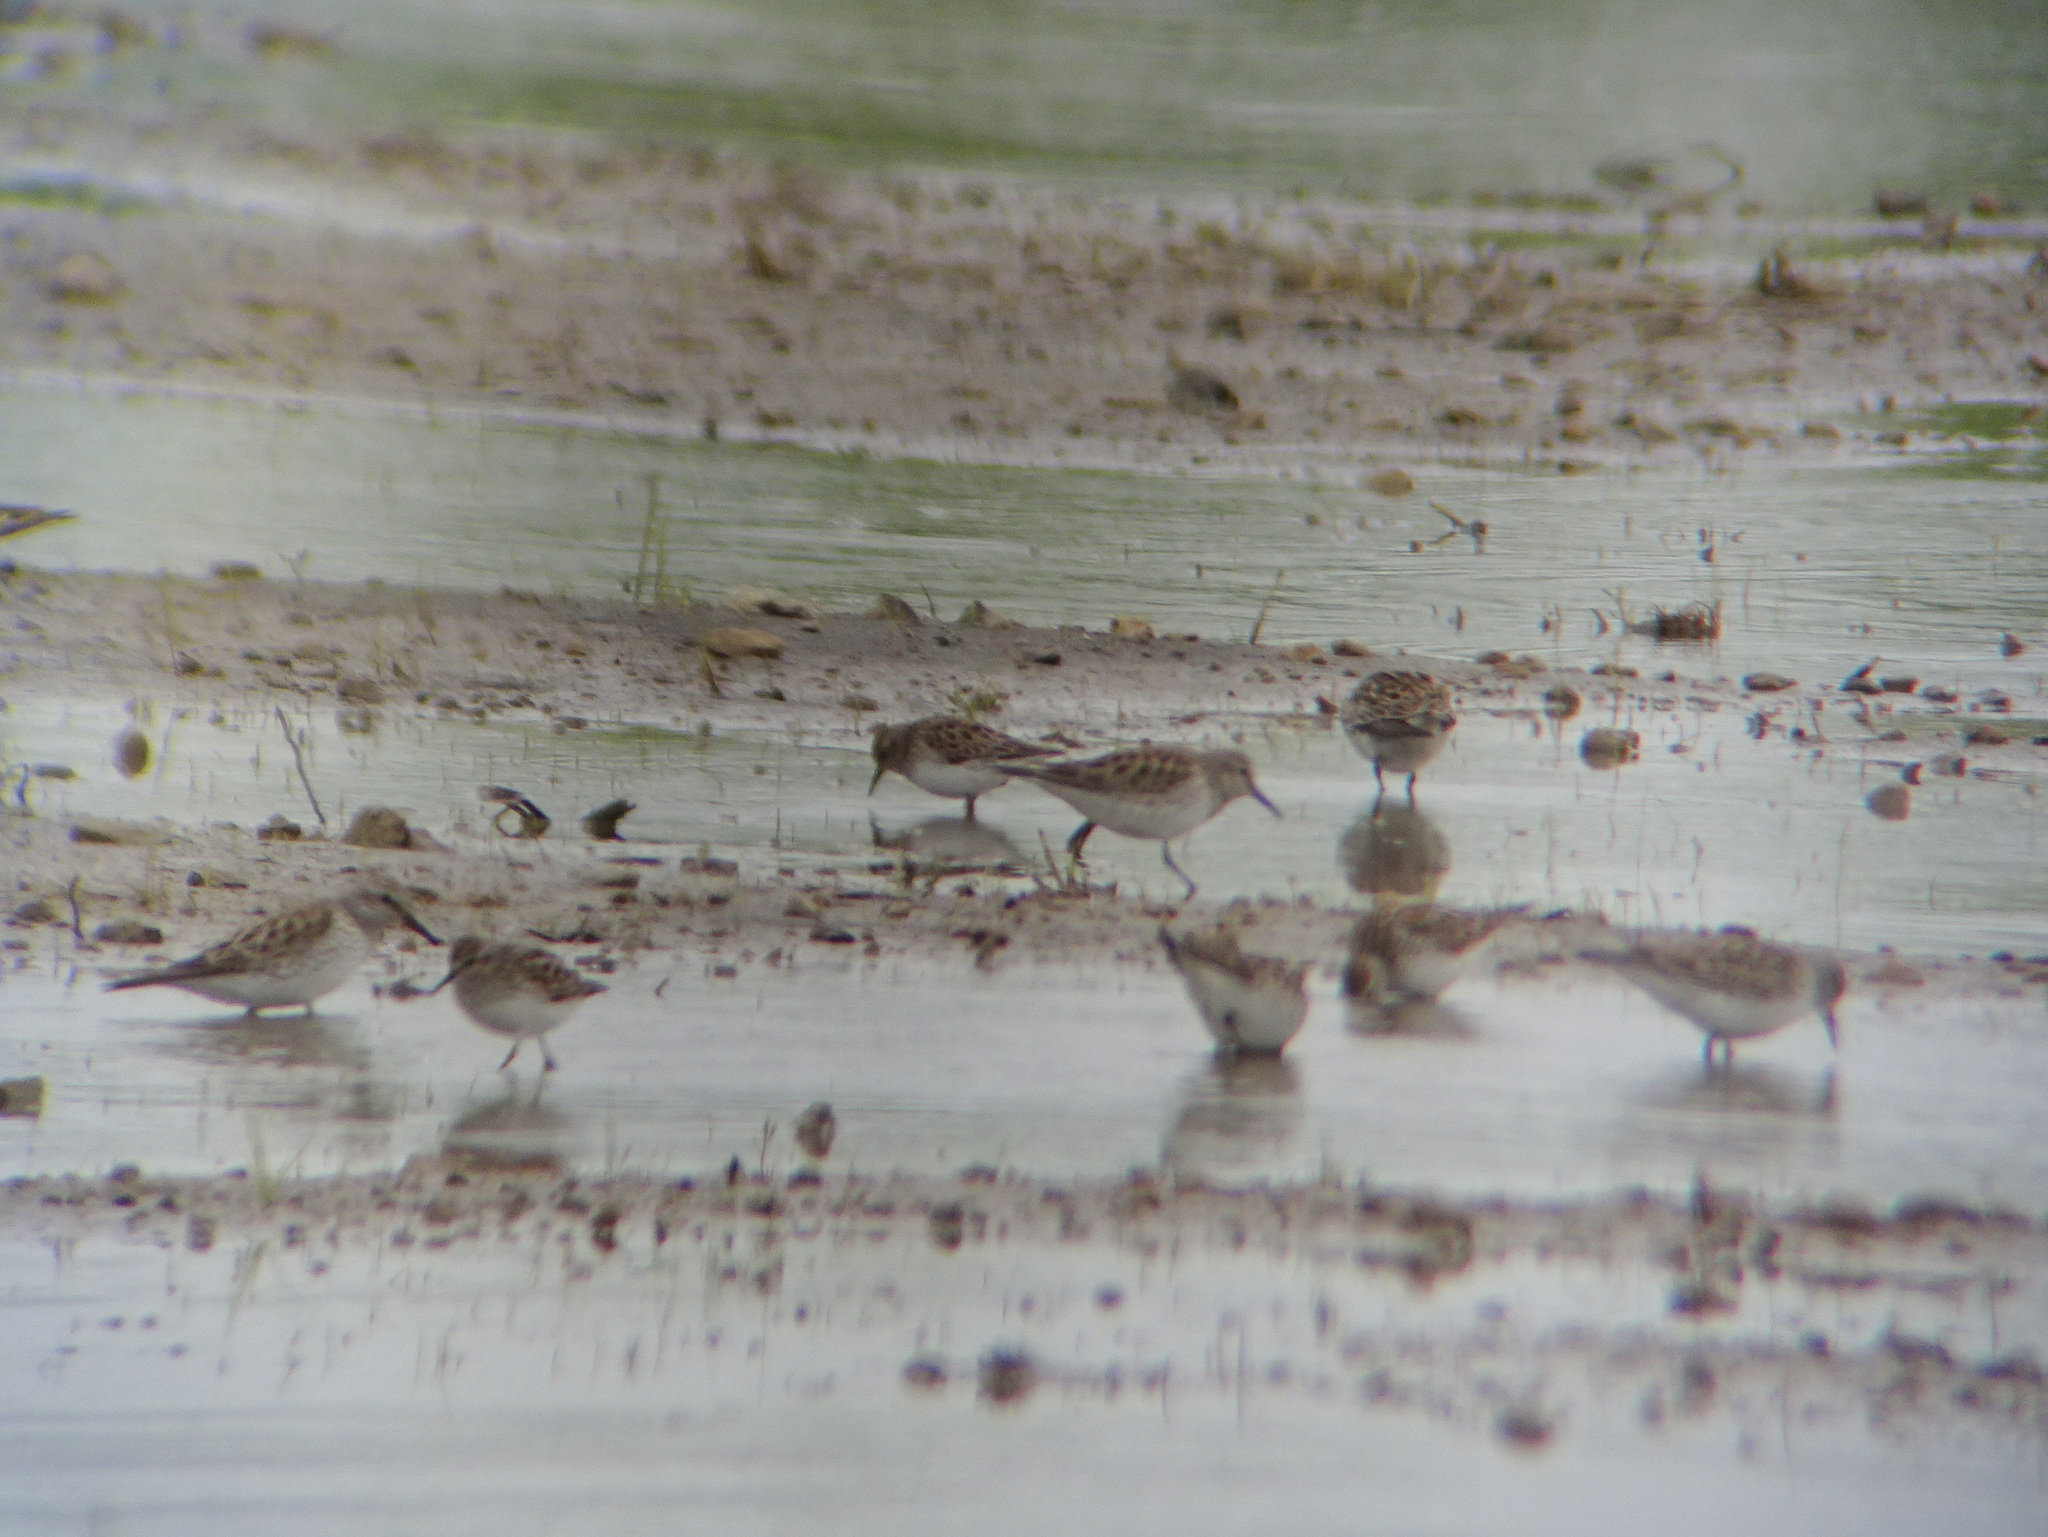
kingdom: Animalia
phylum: Chordata
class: Aves
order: Charadriiformes
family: Scolopacidae
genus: Calidris
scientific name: Calidris fuscicollis
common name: White-rumped sandpiper
